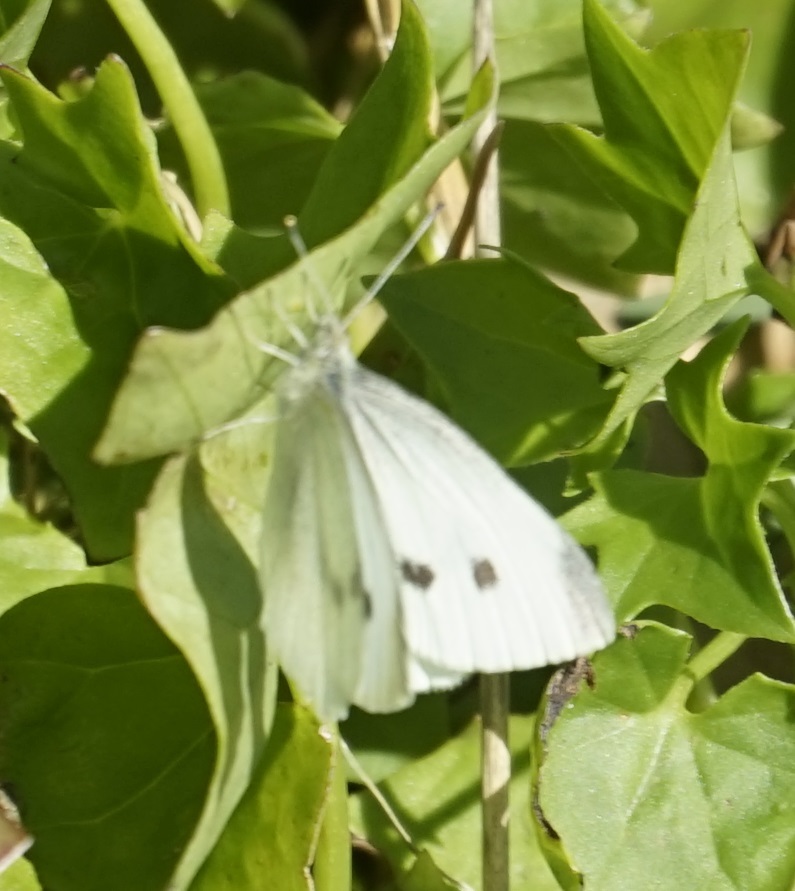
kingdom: Animalia
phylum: Arthropoda
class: Insecta
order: Lepidoptera
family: Pieridae
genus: Pieris
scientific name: Pieris rapae
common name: Small white
